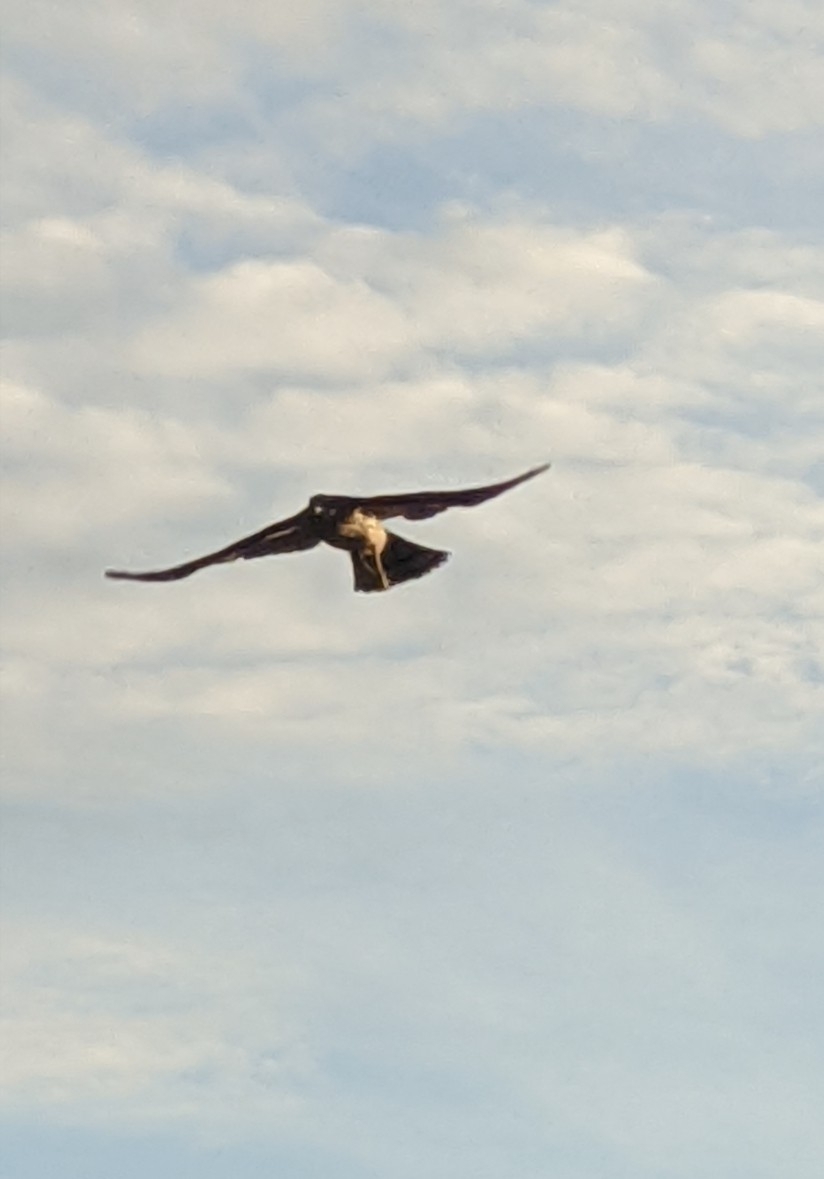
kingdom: Animalia
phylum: Chordata
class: Aves
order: Accipitriformes
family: Accipitridae
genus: Buteo
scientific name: Buteo jamaicensis
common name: Red-tailed hawk
